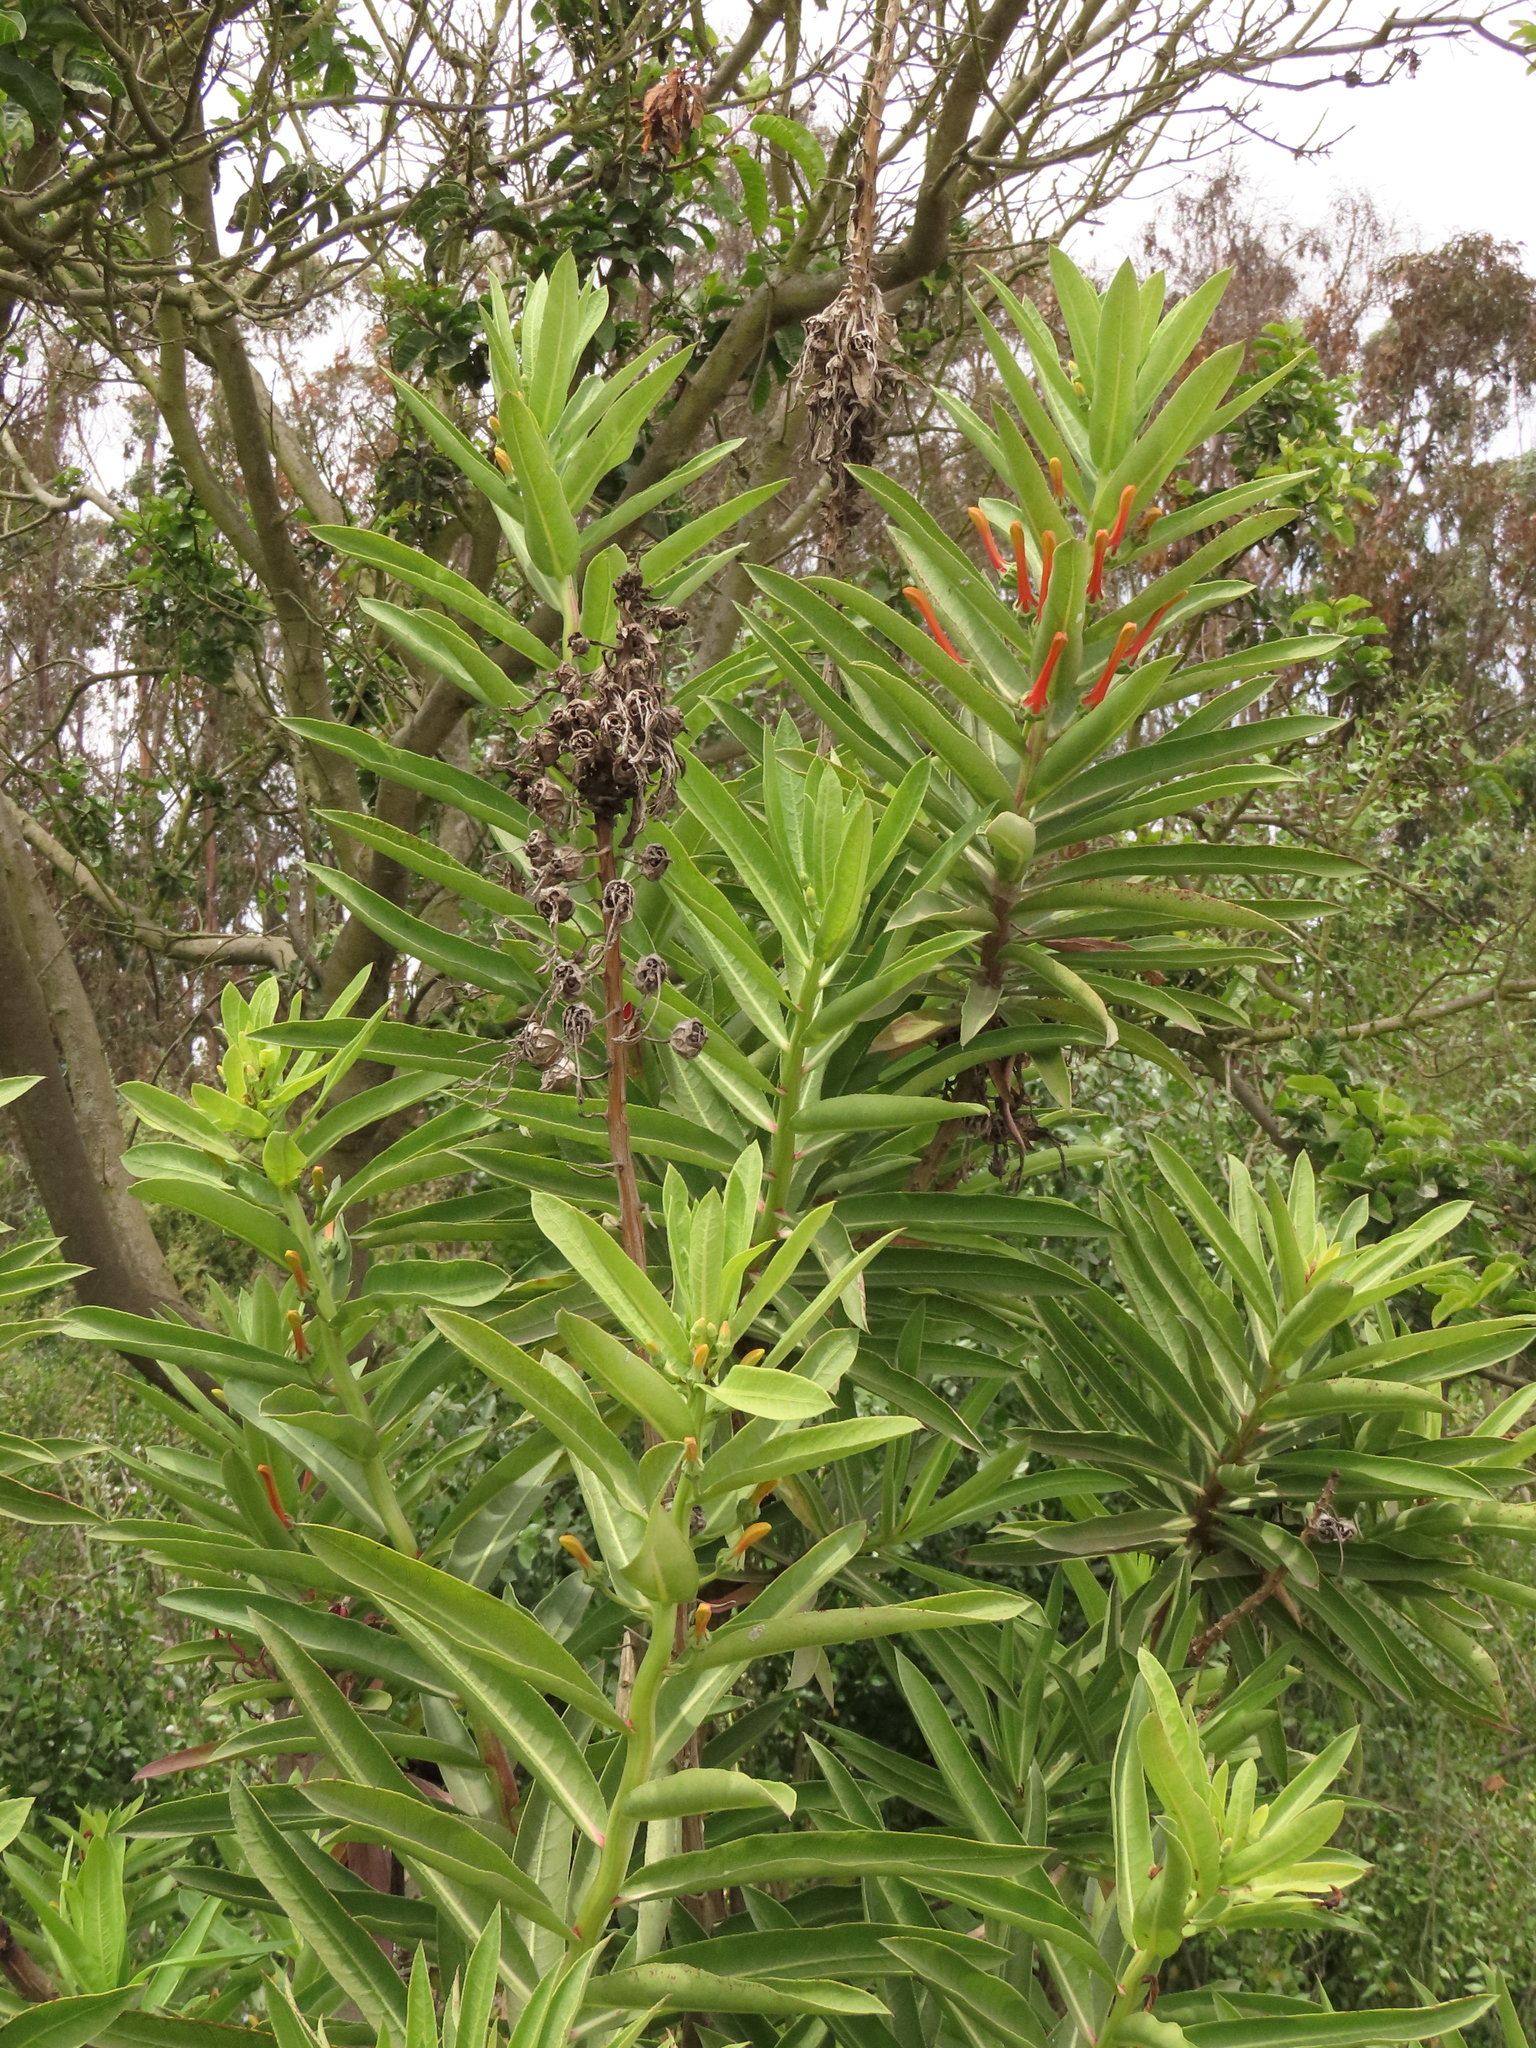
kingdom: Plantae
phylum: Tracheophyta
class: Magnoliopsida
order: Asterales
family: Campanulaceae
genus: Lobelia
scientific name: Lobelia excelsa
